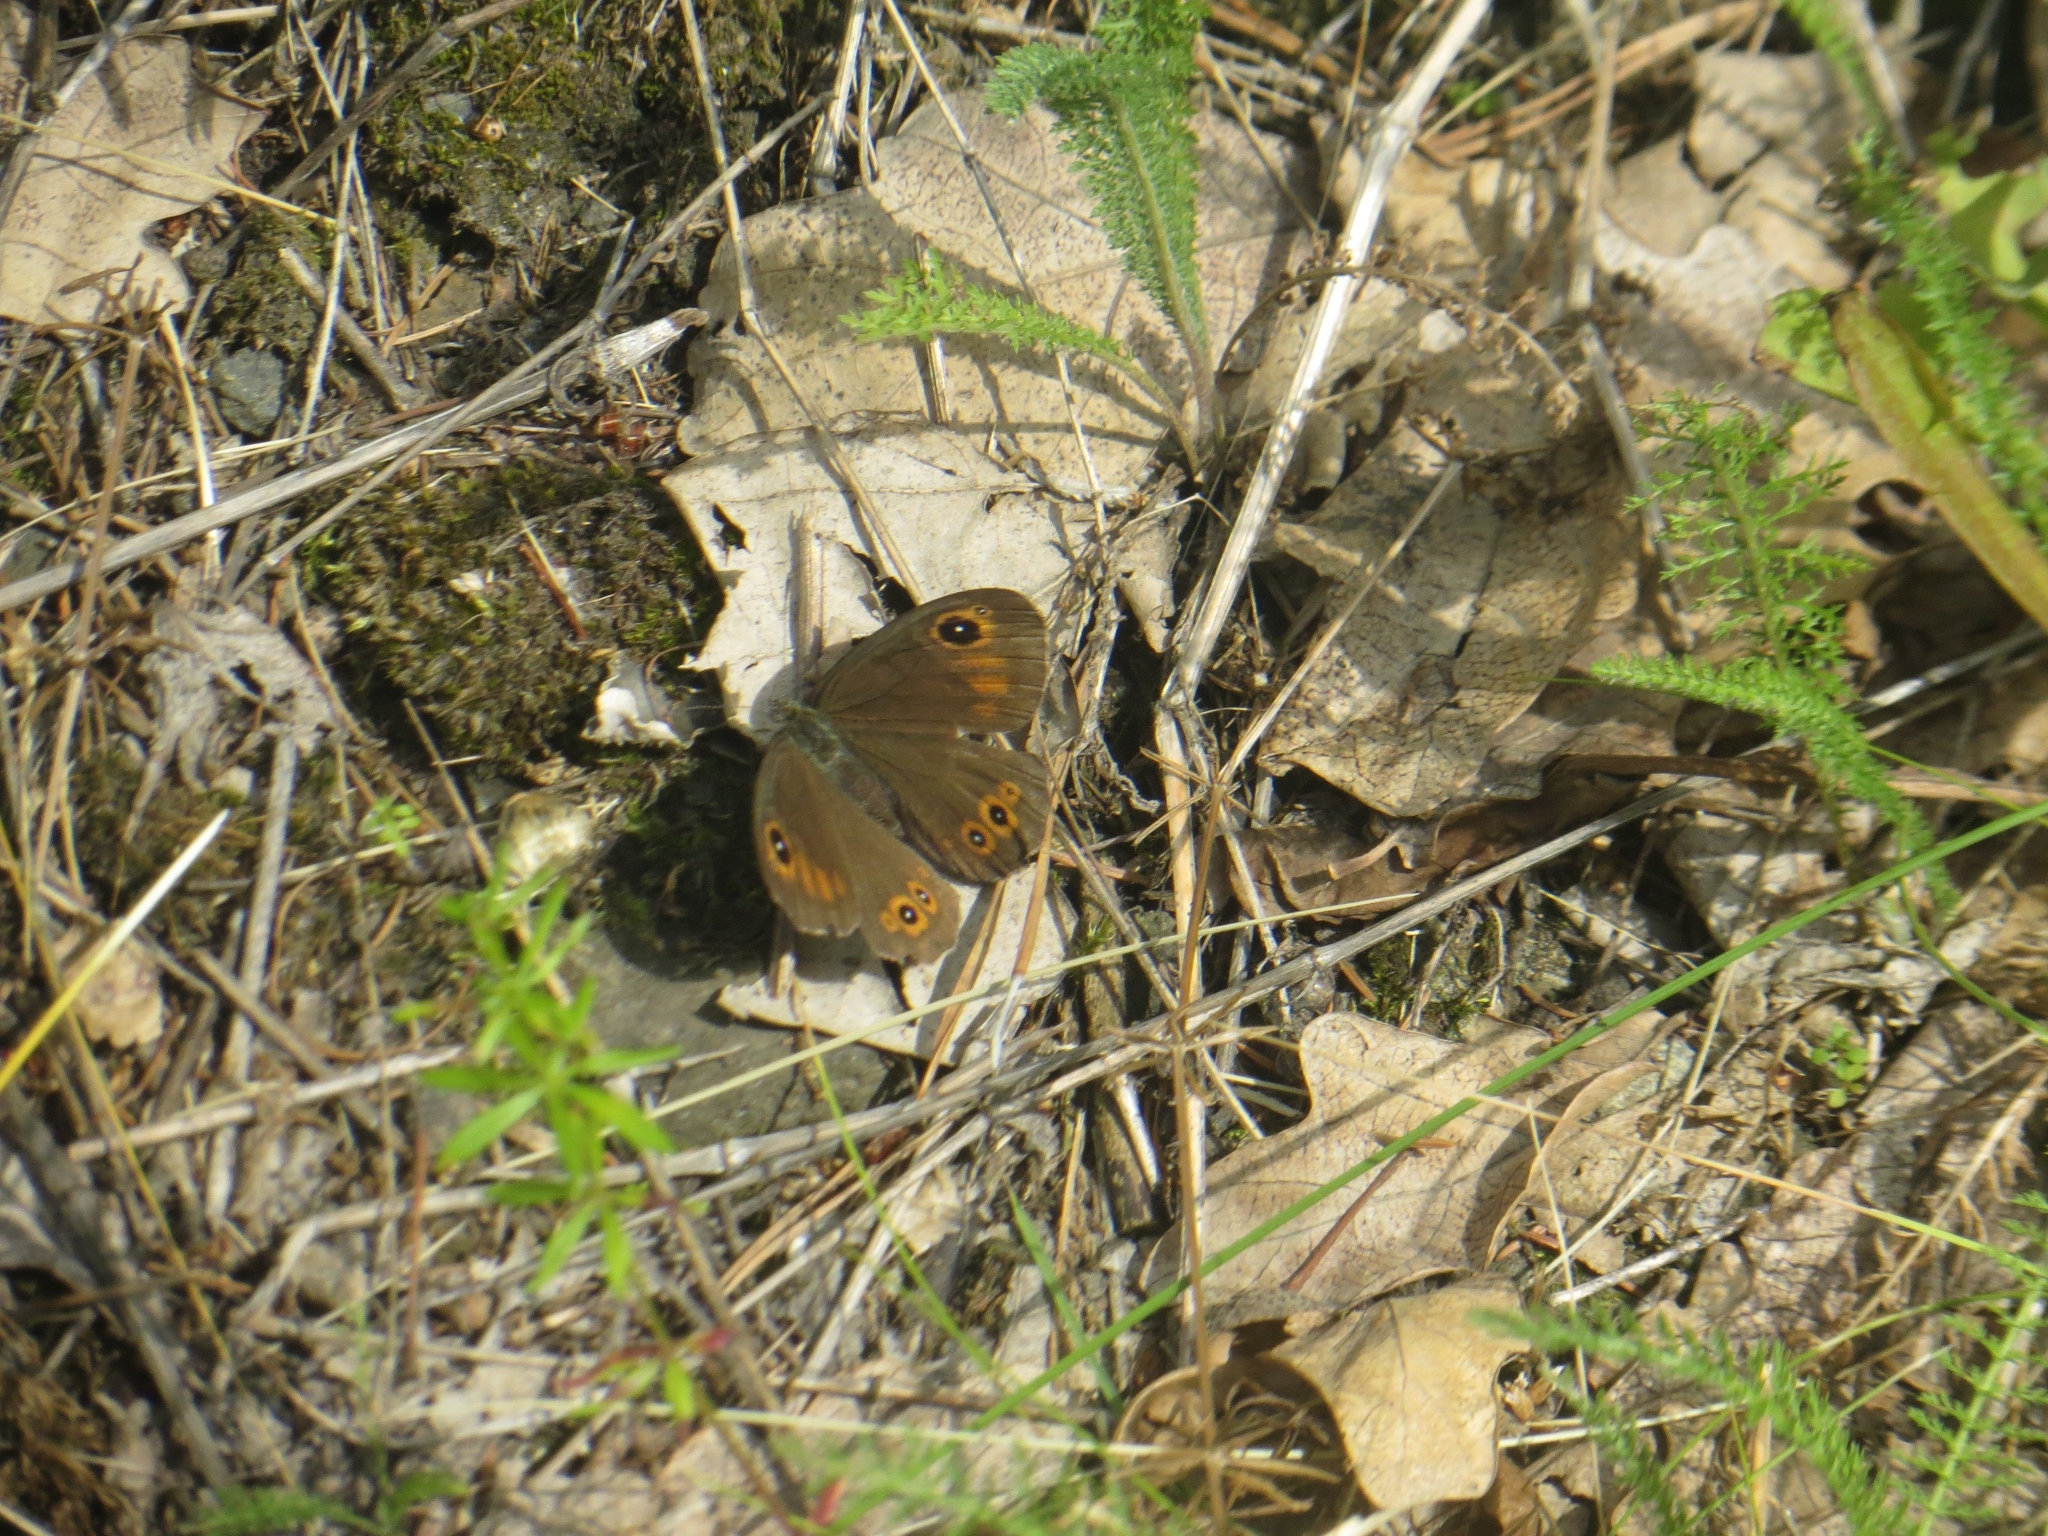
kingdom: Animalia
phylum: Arthropoda
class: Insecta
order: Lepidoptera
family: Nymphalidae
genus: Pararge
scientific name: Pararge Lasiommata maera
